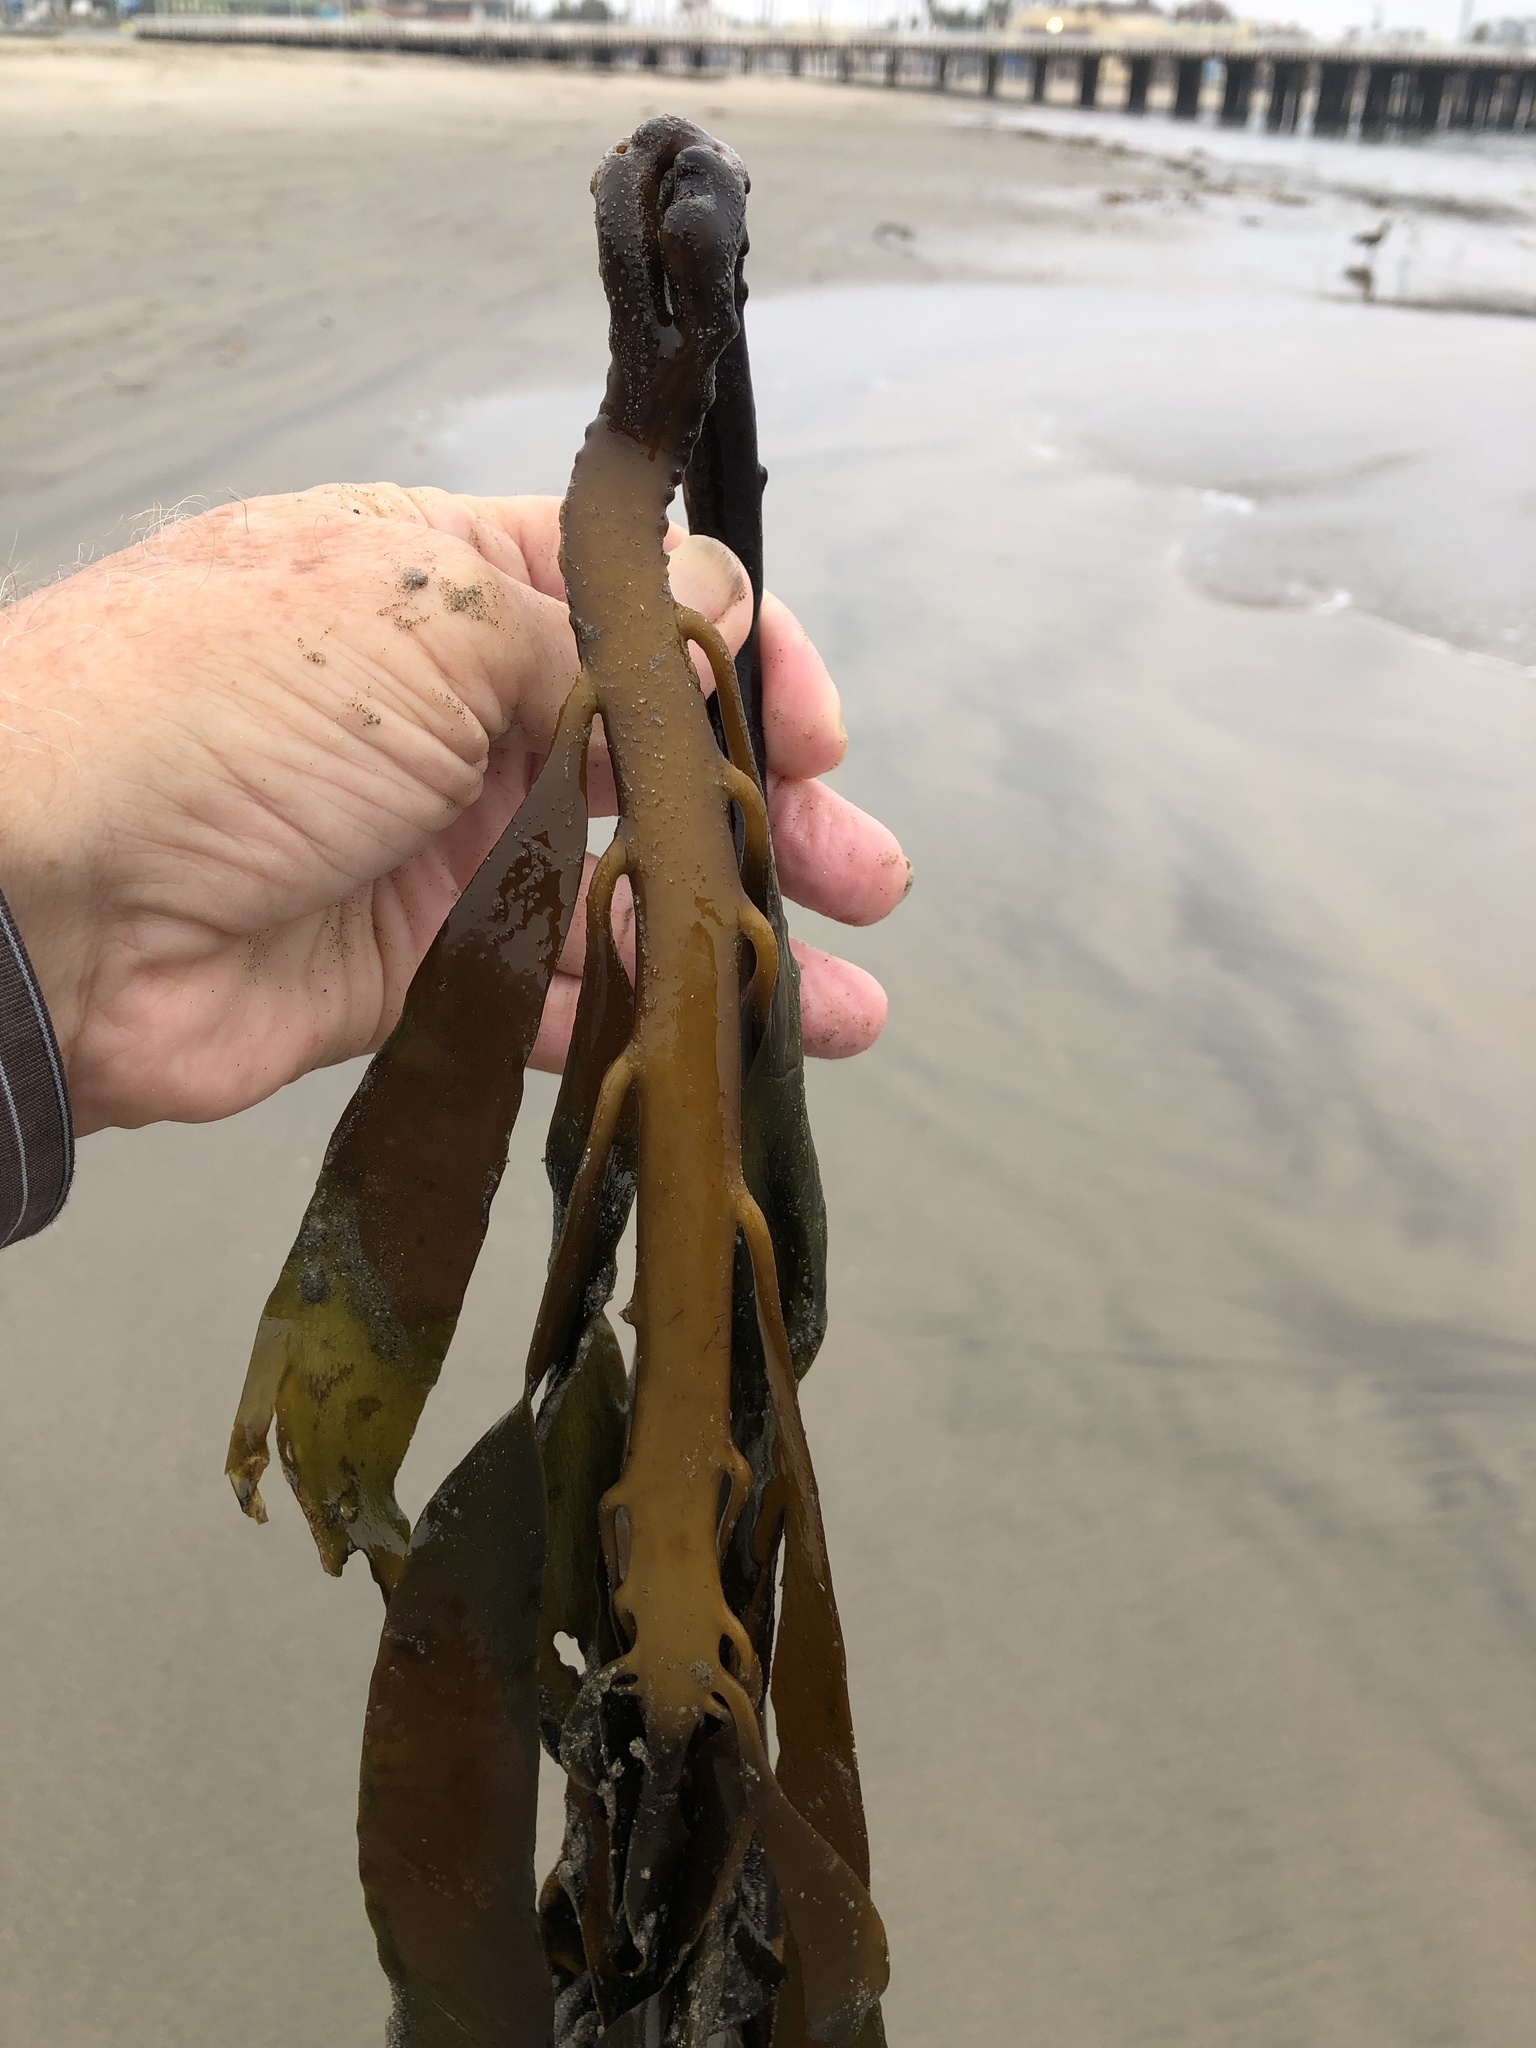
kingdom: Chromista
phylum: Ochrophyta
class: Phaeophyceae
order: Laminariales
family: Alariaceae
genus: Pterygophora
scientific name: Pterygophora californica
